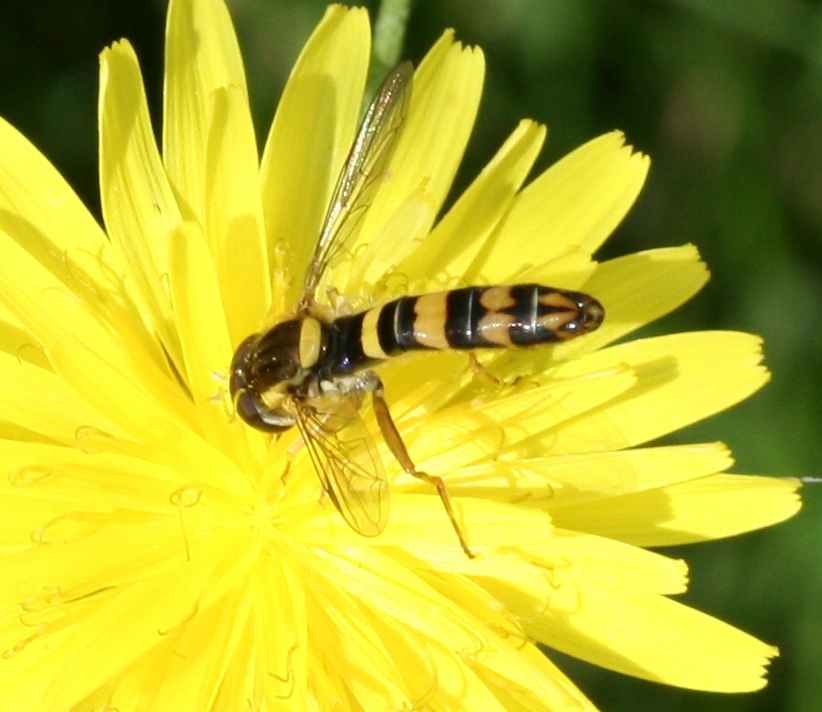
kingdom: Animalia
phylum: Arthropoda
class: Insecta
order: Diptera
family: Syrphidae
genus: Sphaerophoria
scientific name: Sphaerophoria
